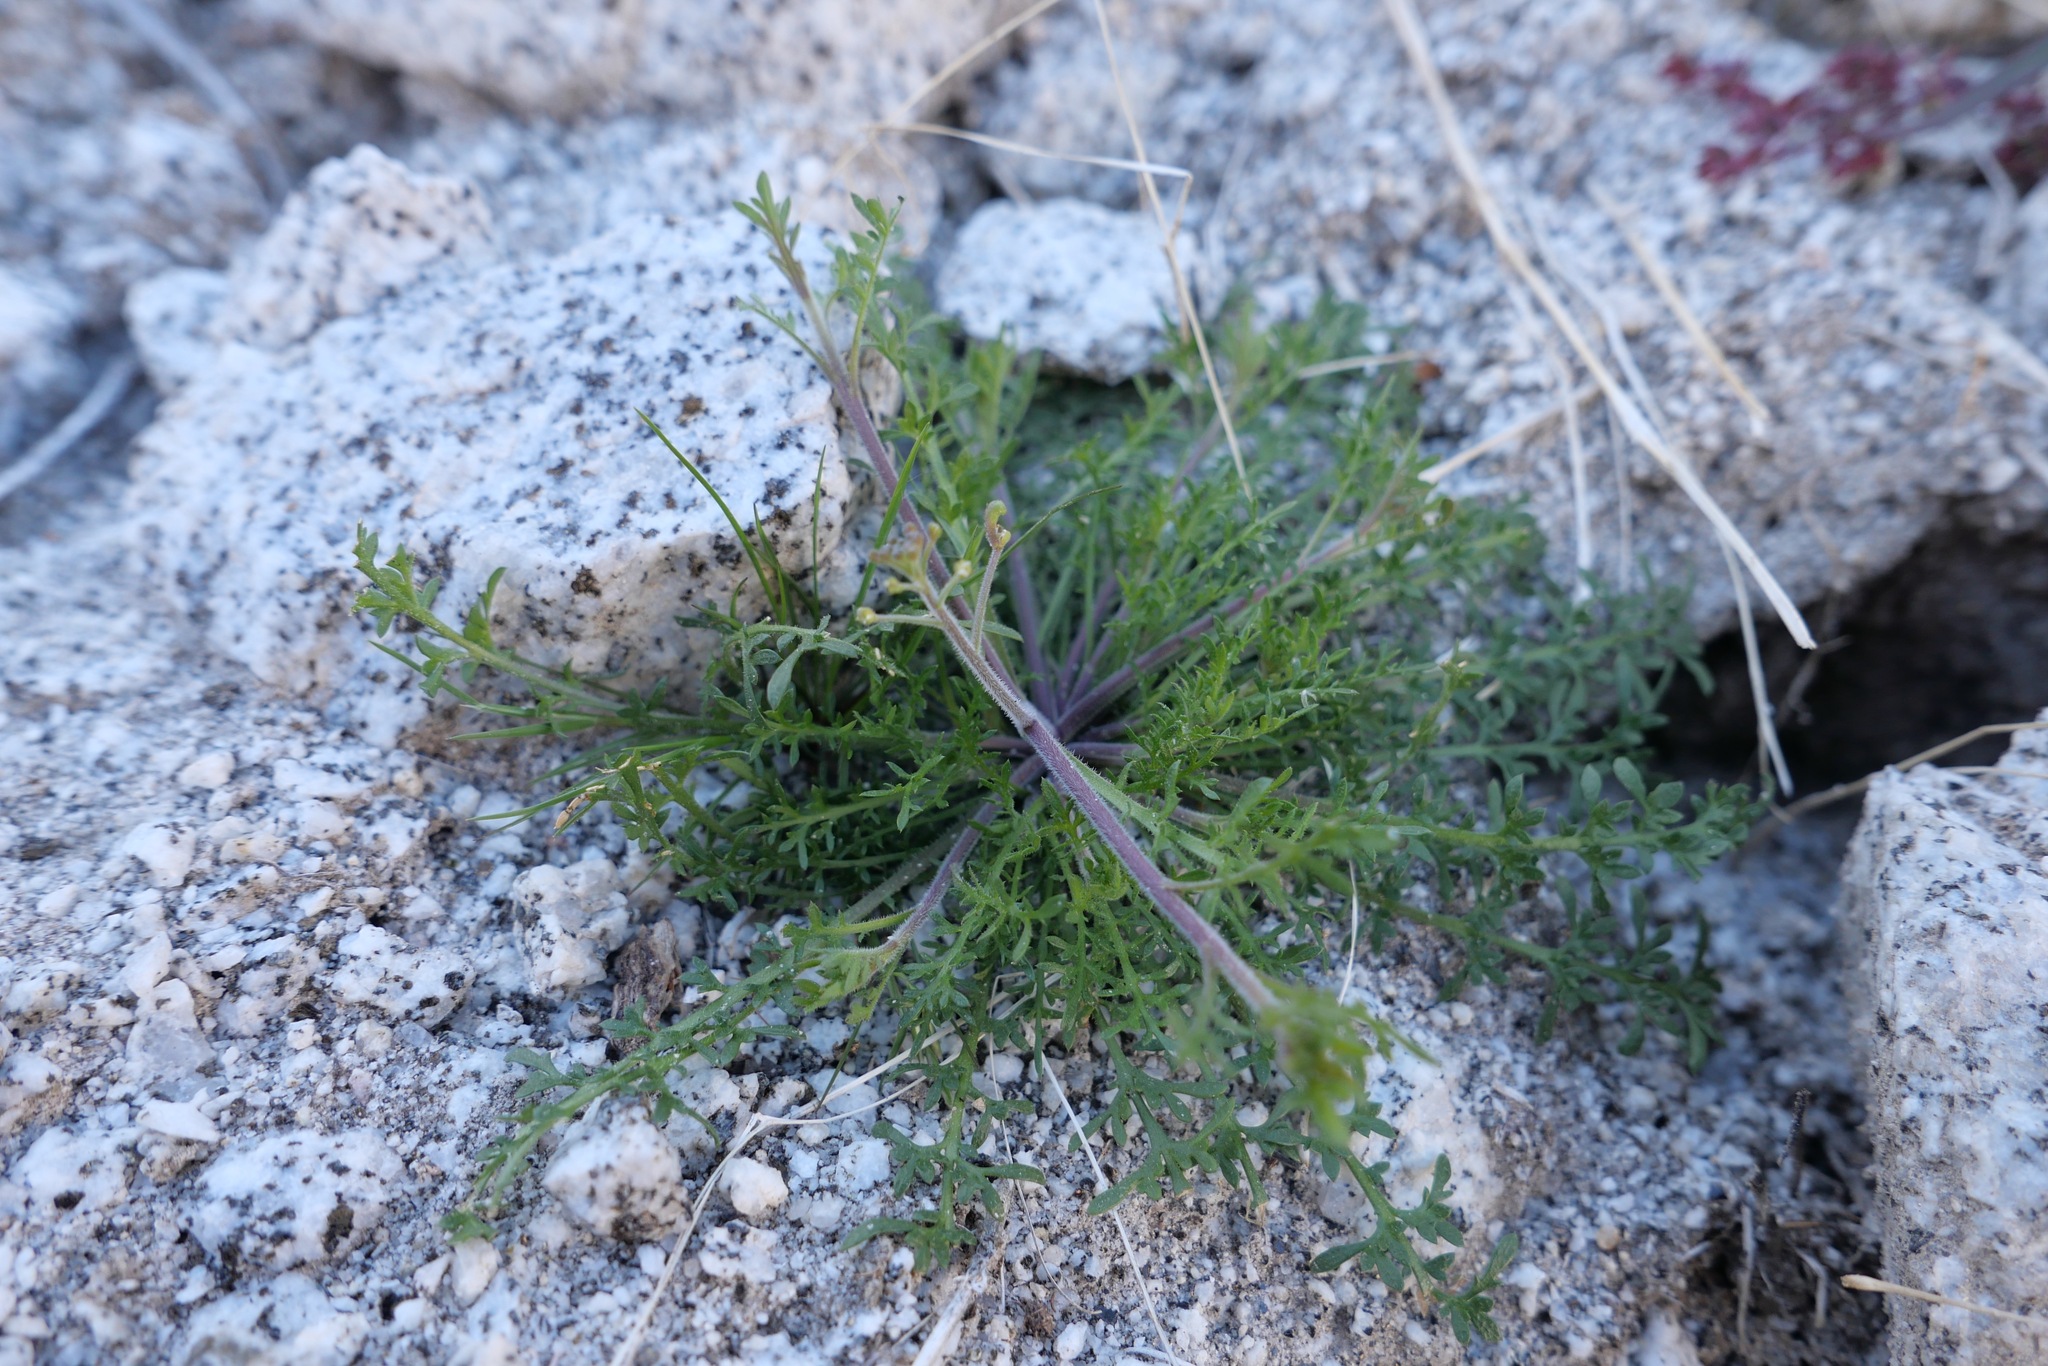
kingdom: Plantae
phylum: Tracheophyta
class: Magnoliopsida
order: Brassicales
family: Brassicaceae
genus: Lepidium
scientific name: Lepidium lasiocarpum
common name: Hairy-pod pepperwort
